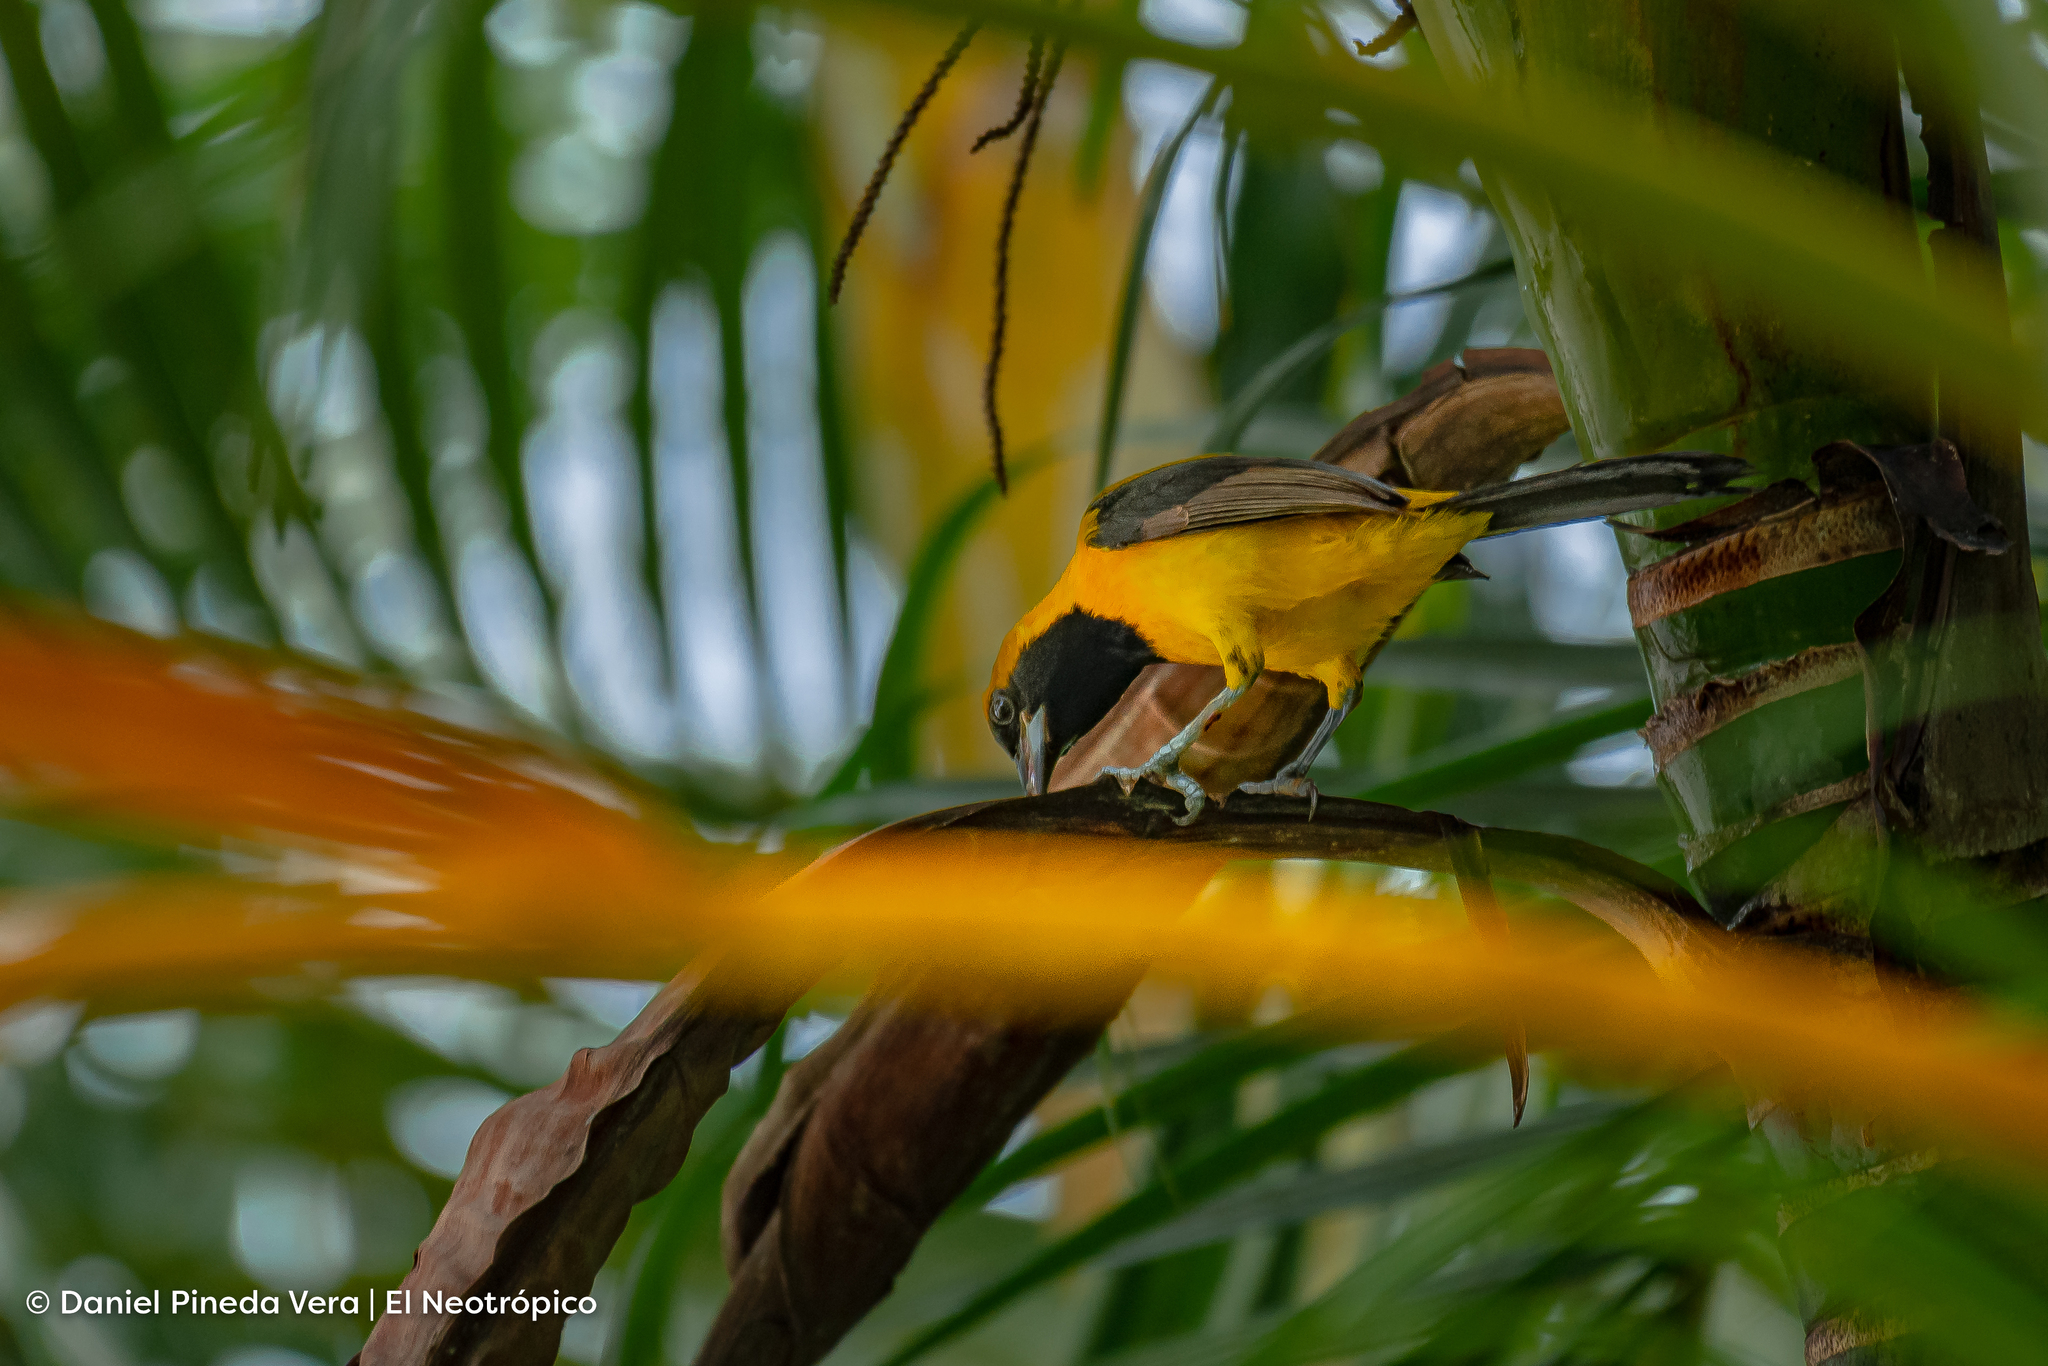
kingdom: Animalia
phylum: Chordata
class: Aves
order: Passeriformes
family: Icteridae
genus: Icterus
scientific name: Icterus chrysater
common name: Yellow-backed oriole
